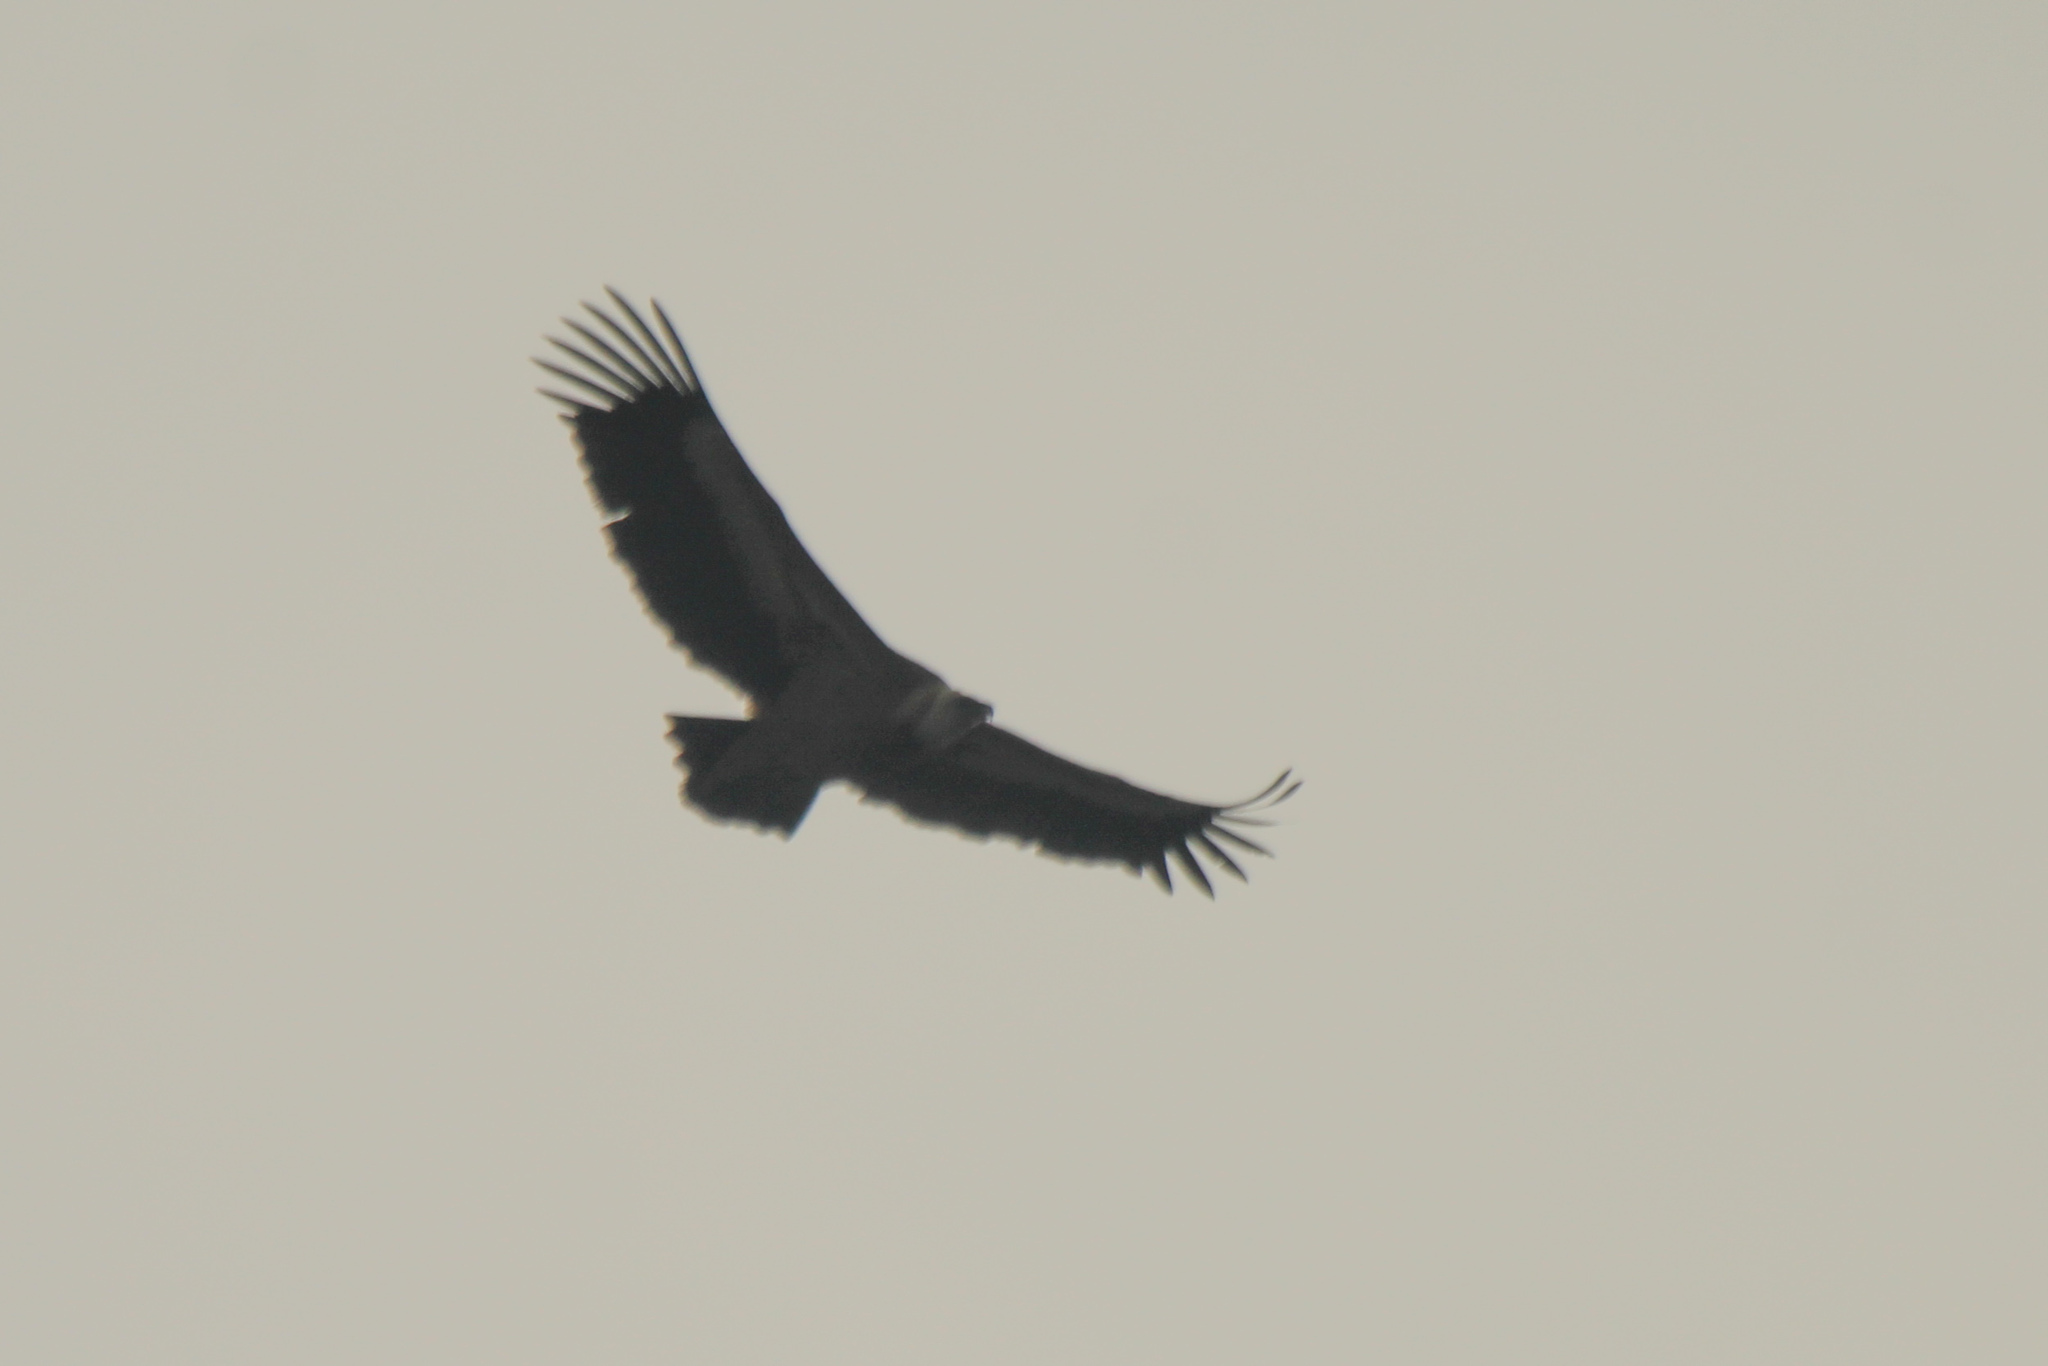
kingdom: Animalia
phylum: Chordata
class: Aves
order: Accipitriformes
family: Accipitridae
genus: Gyps
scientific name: Gyps fulvus
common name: Griffon vulture
